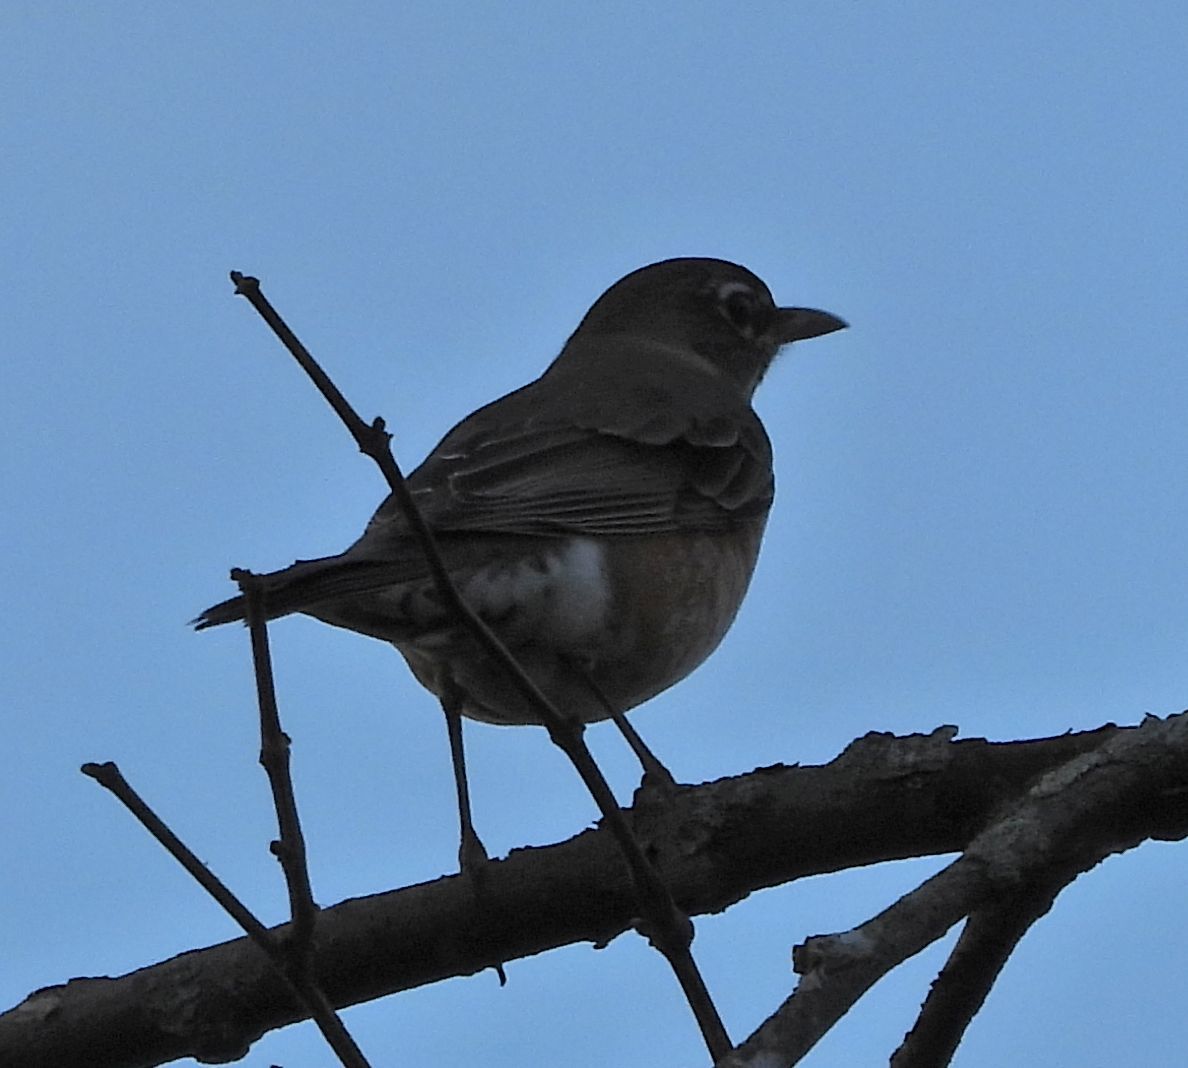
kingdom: Animalia
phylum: Chordata
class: Aves
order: Passeriformes
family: Turdidae
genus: Turdus
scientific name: Turdus migratorius
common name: American robin
